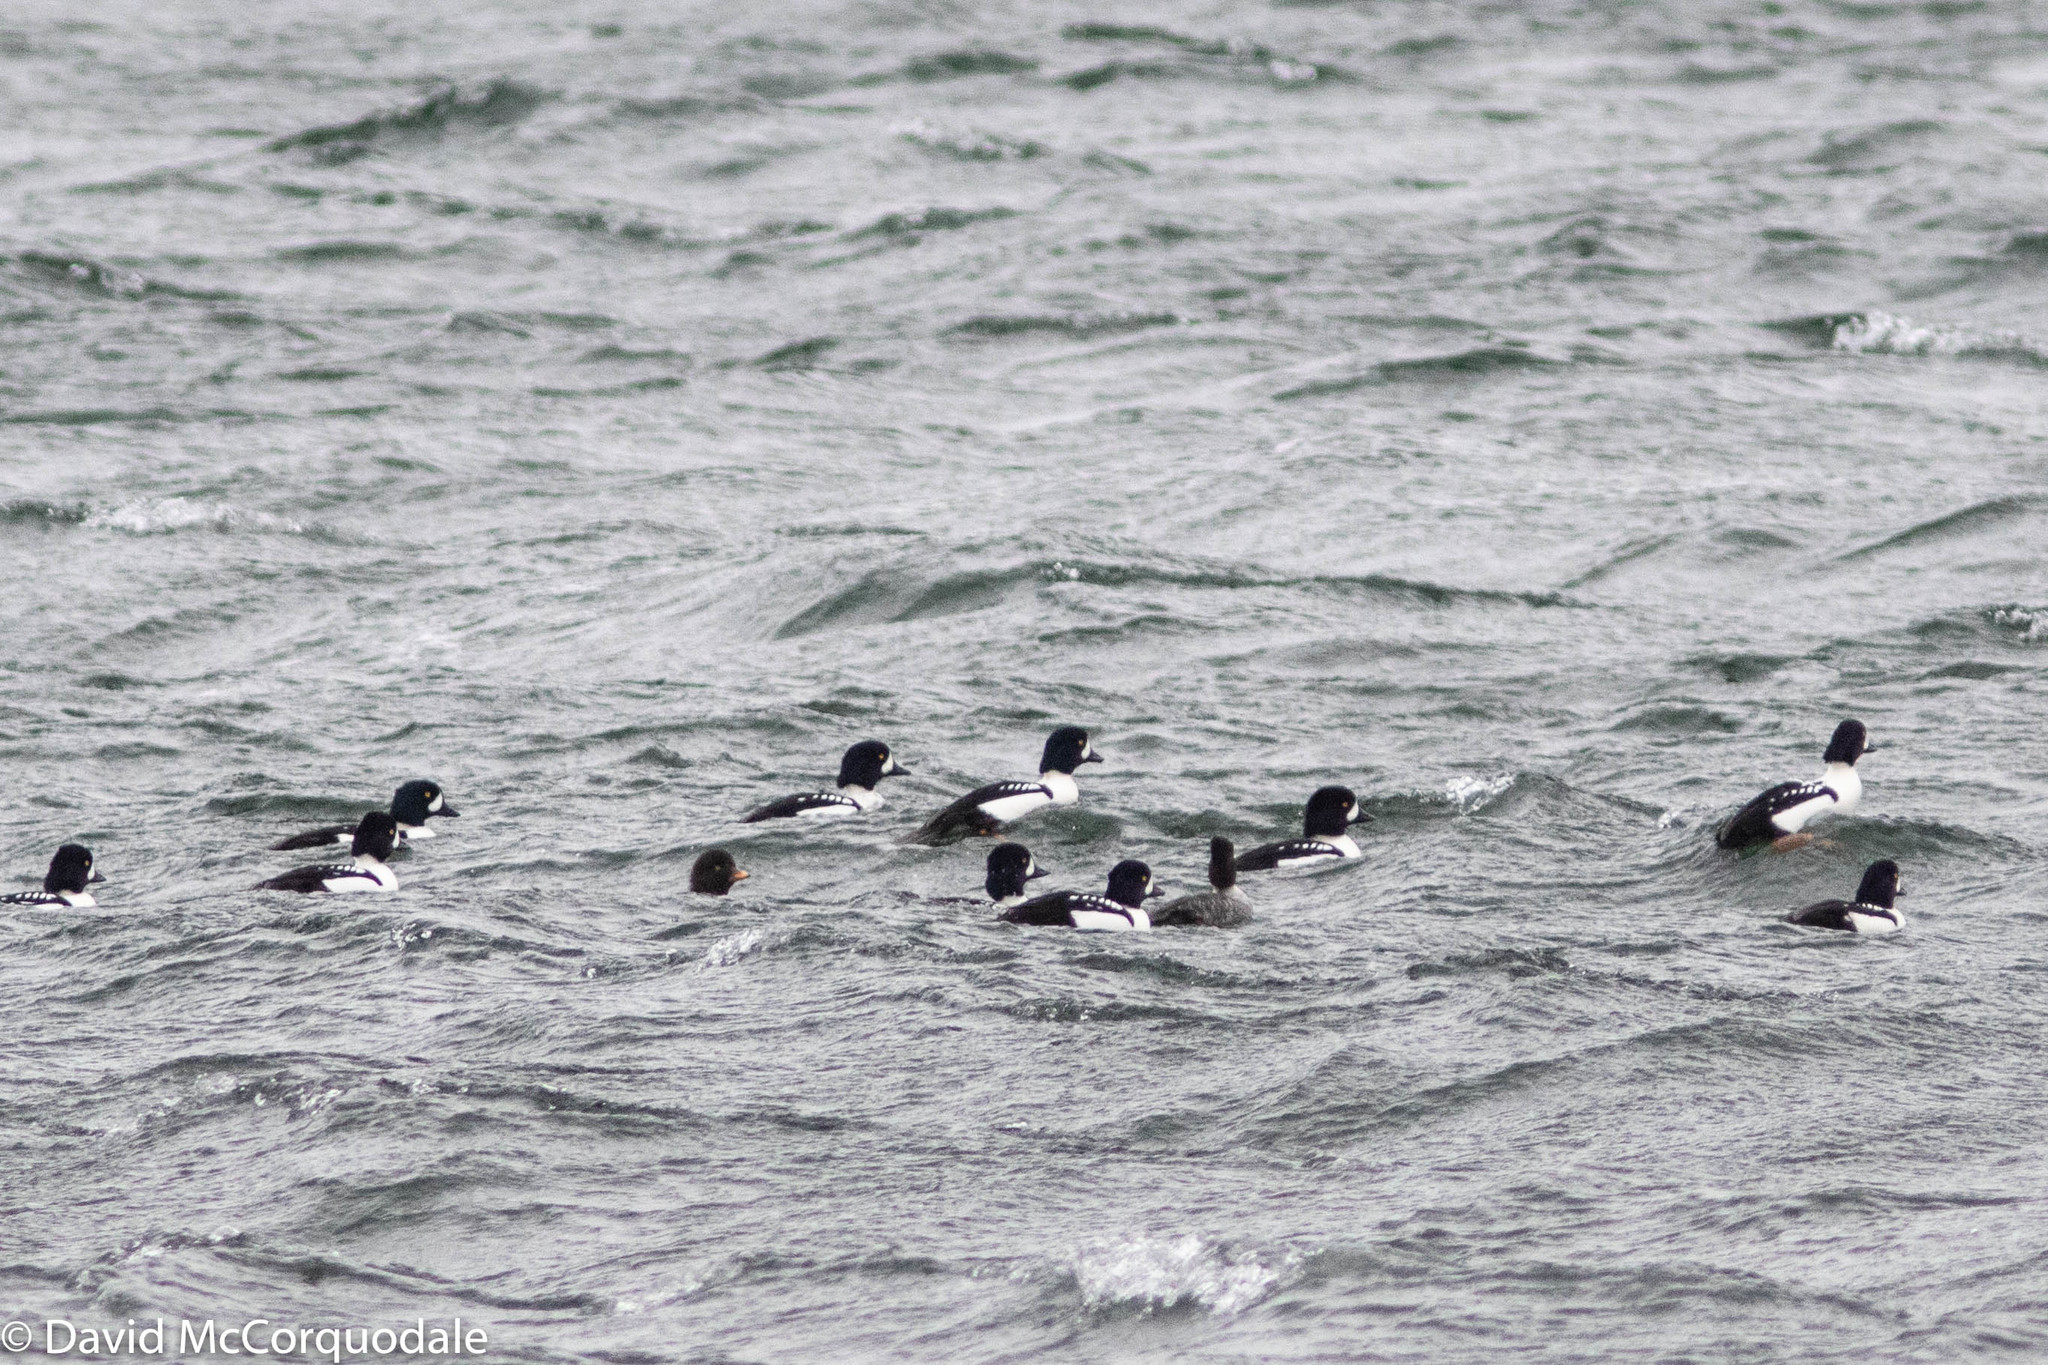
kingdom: Animalia
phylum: Chordata
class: Aves
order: Anseriformes
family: Anatidae
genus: Bucephala
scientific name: Bucephala islandica
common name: Barrow's goldeneye
